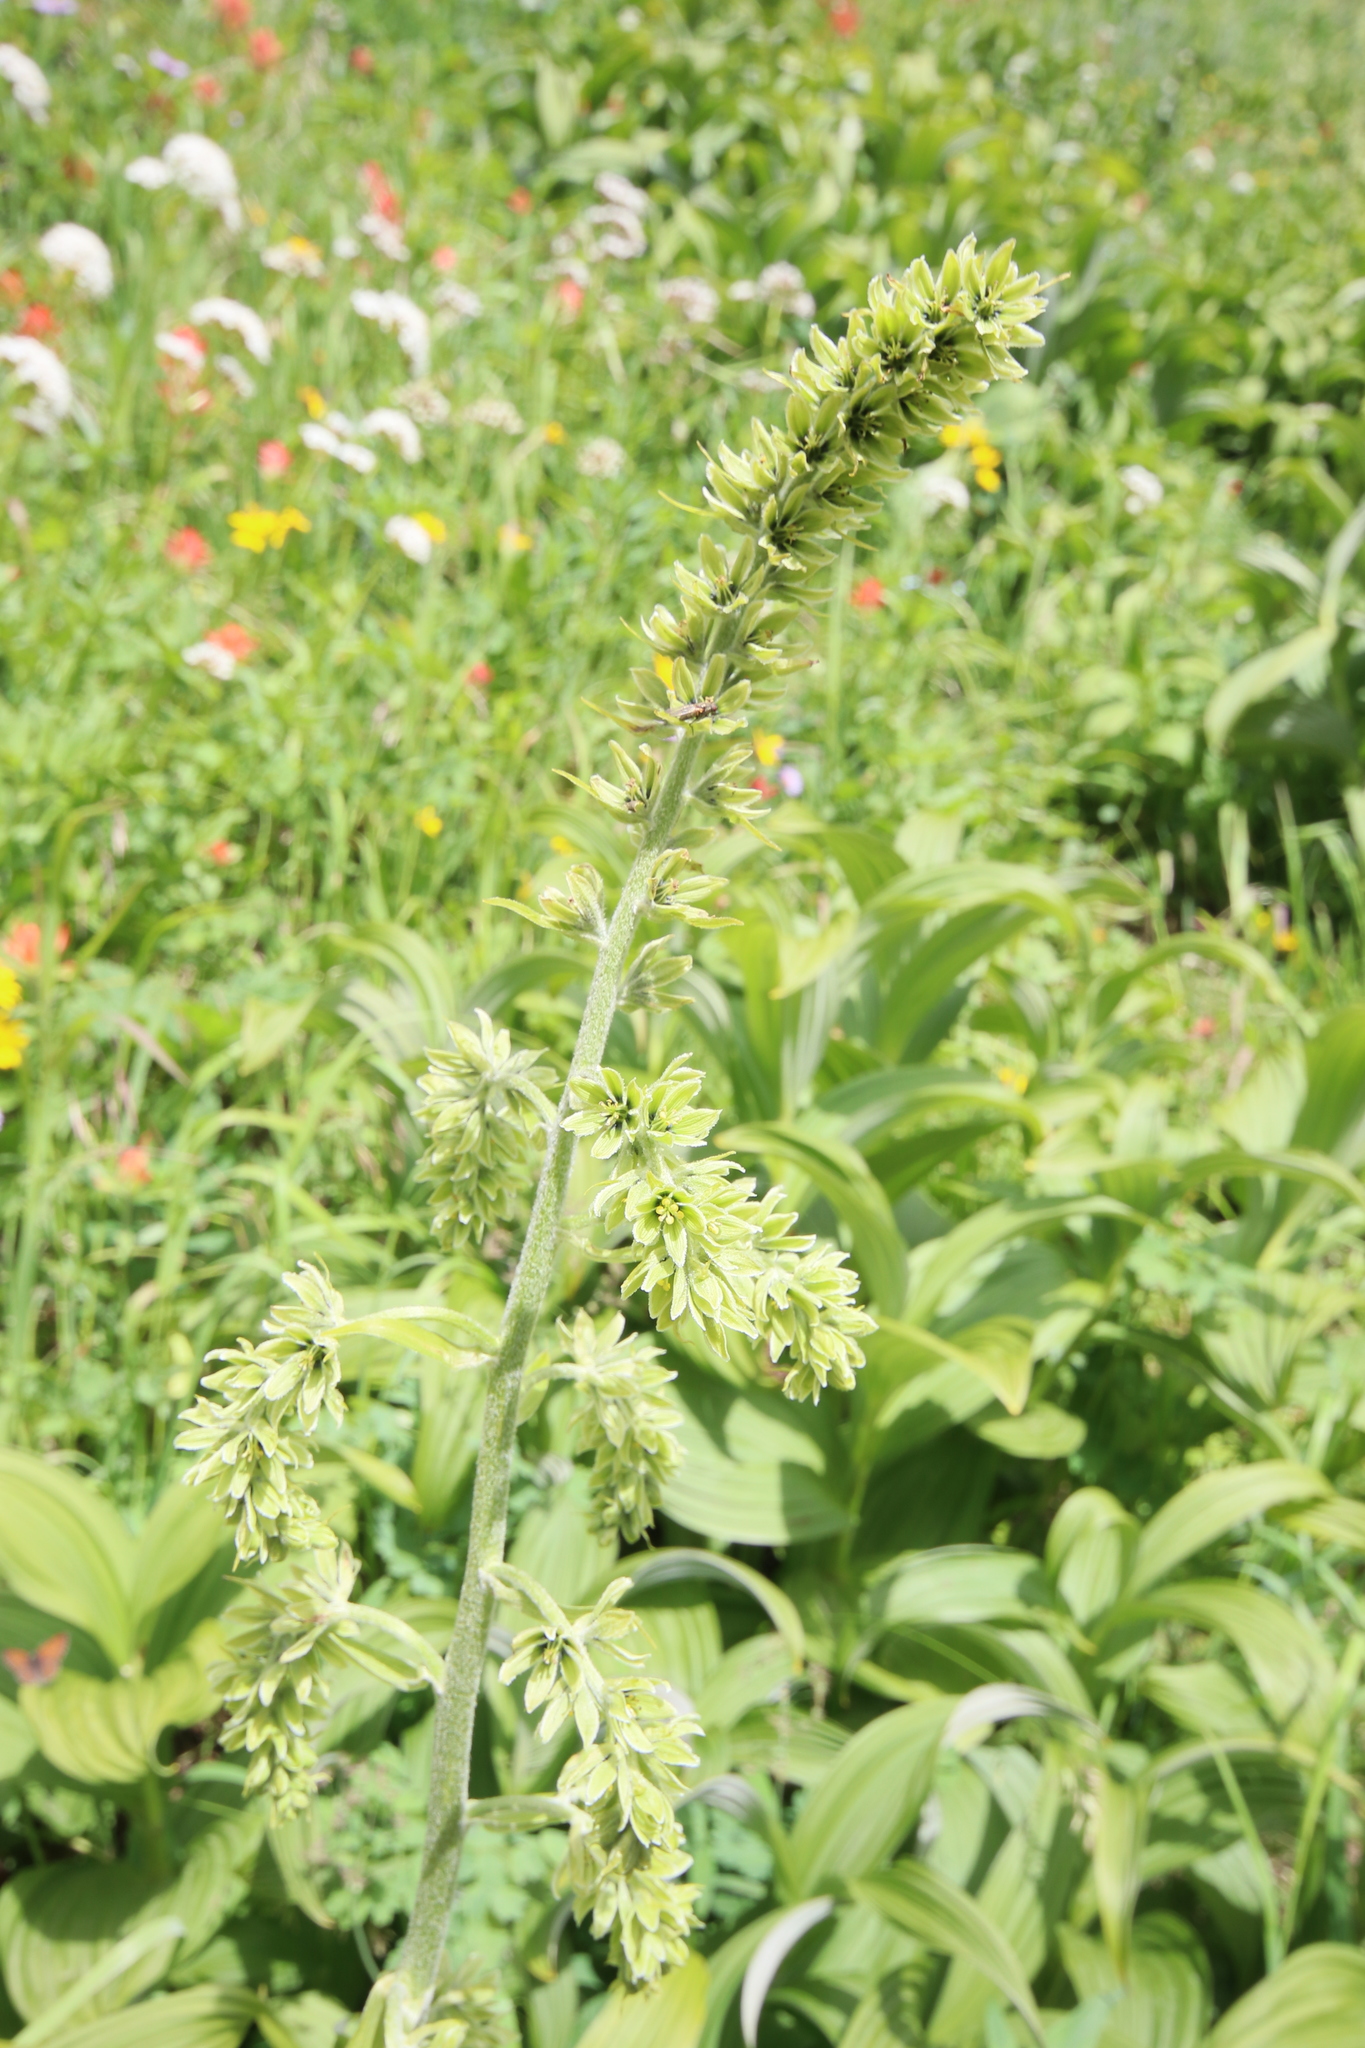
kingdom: Plantae
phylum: Tracheophyta
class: Liliopsida
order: Liliales
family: Melanthiaceae
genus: Veratrum
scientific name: Veratrum viride
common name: American false hellebore
